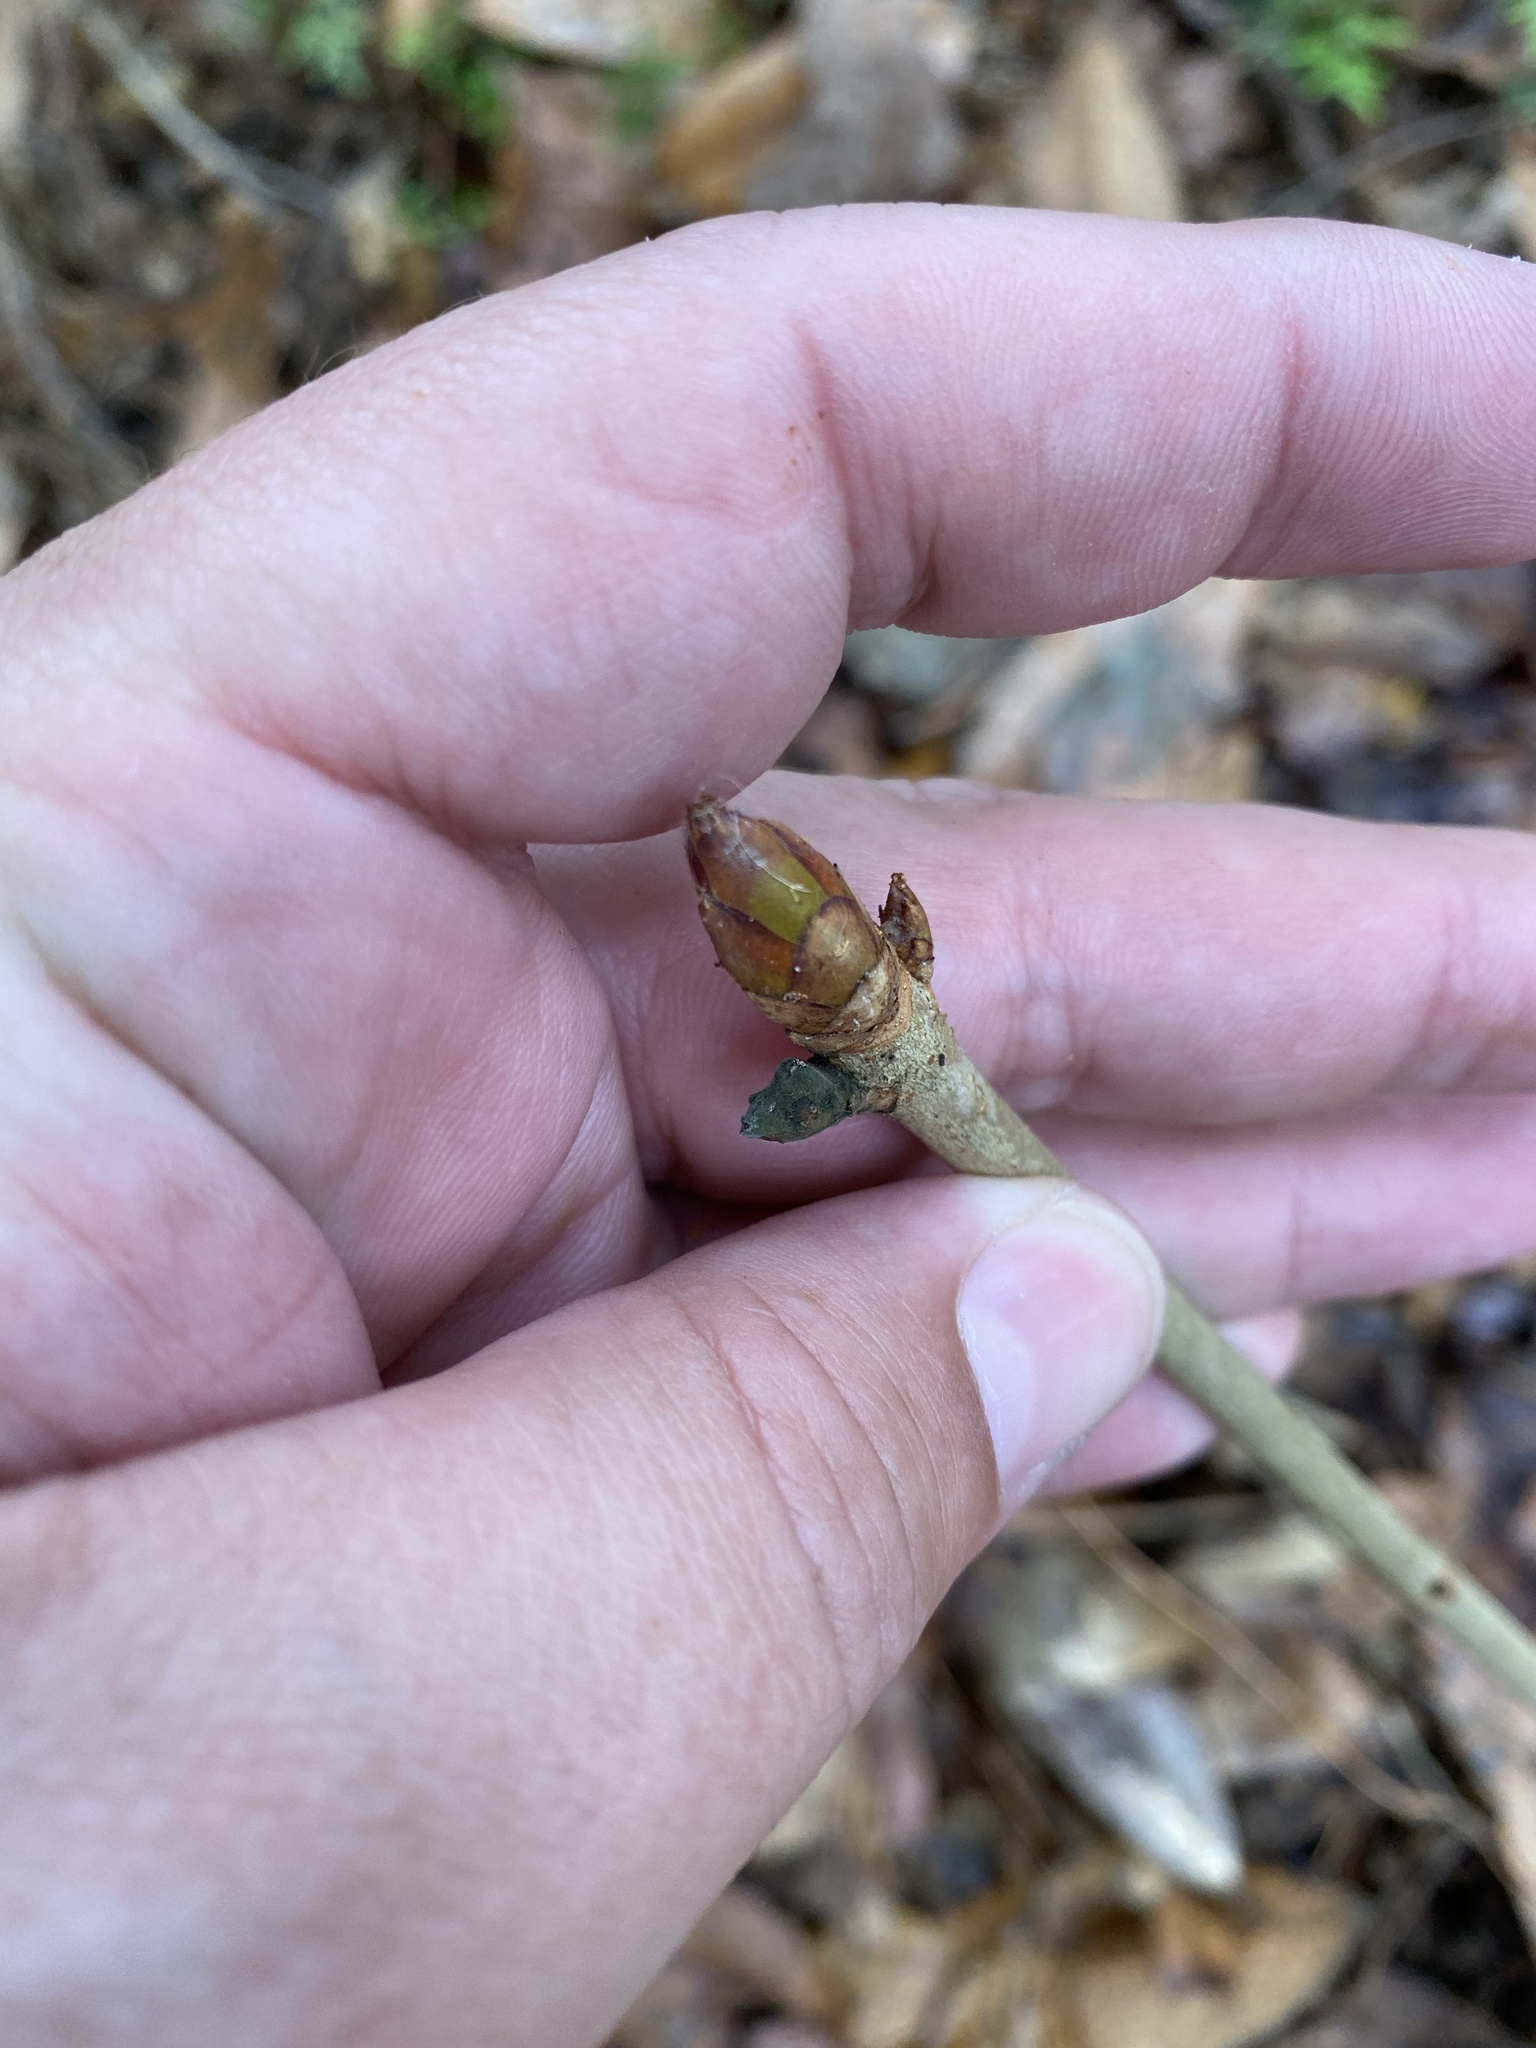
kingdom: Plantae
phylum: Tracheophyta
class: Magnoliopsida
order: Sapindales
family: Sapindaceae
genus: Aesculus
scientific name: Aesculus pavia
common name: Red buckeye
